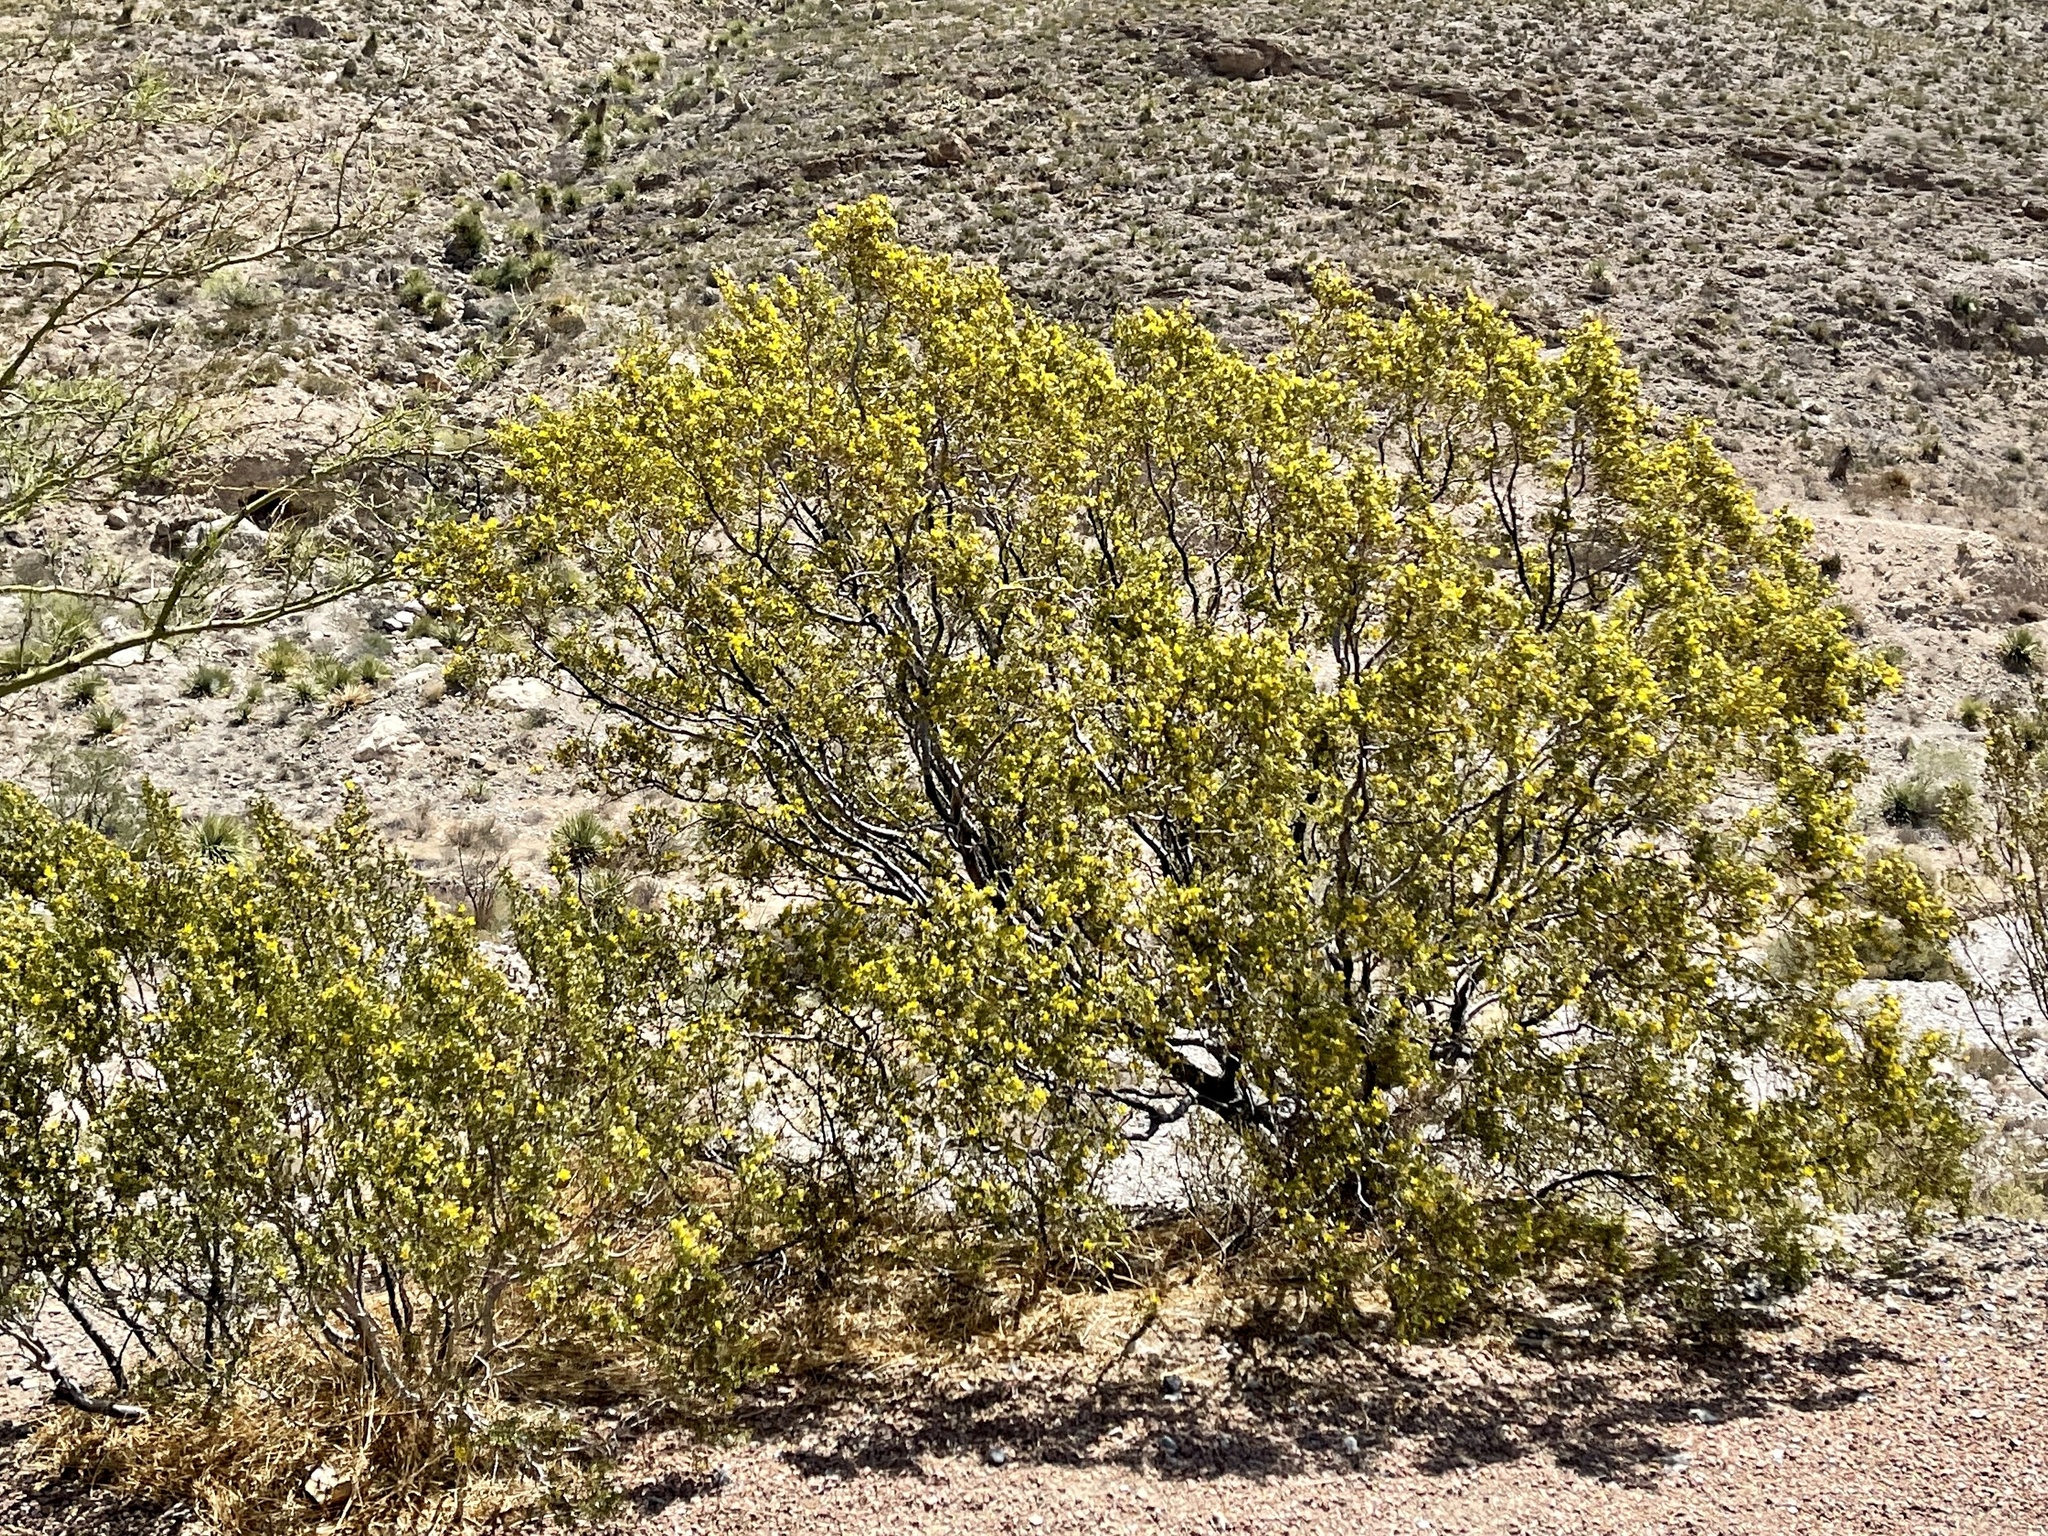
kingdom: Plantae
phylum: Tracheophyta
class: Magnoliopsida
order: Zygophyllales
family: Zygophyllaceae
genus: Larrea
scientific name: Larrea tridentata
